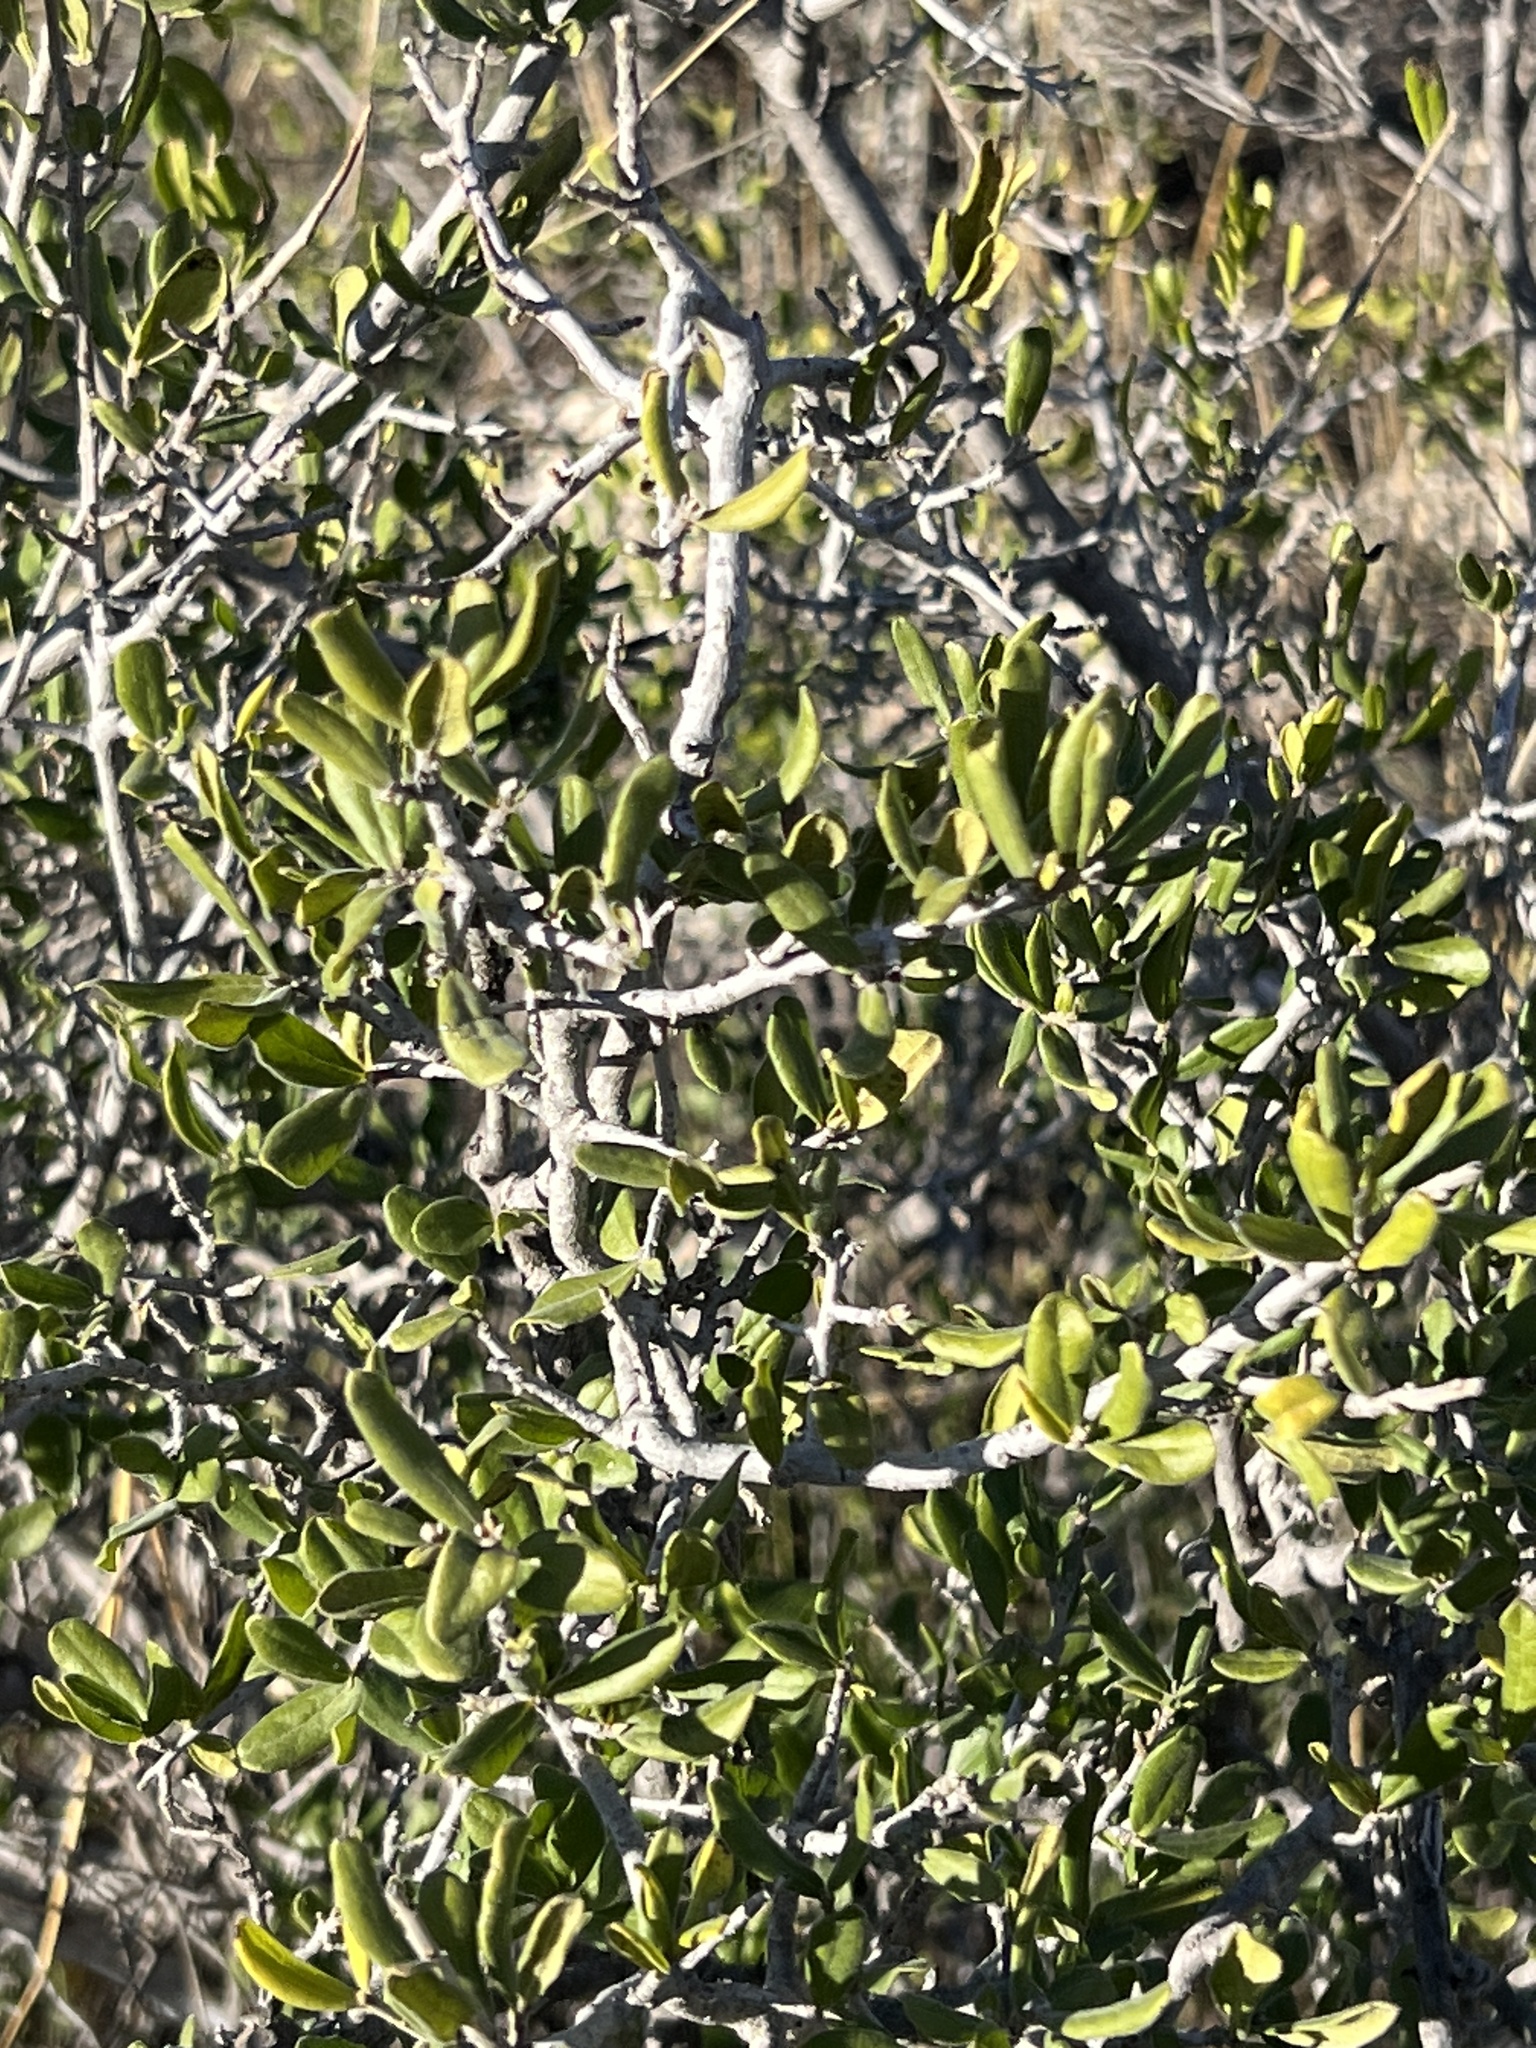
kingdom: Plantae
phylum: Tracheophyta
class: Magnoliopsida
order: Ericales
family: Ebenaceae
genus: Diospyros
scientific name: Diospyros texana
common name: Texas persimmon
